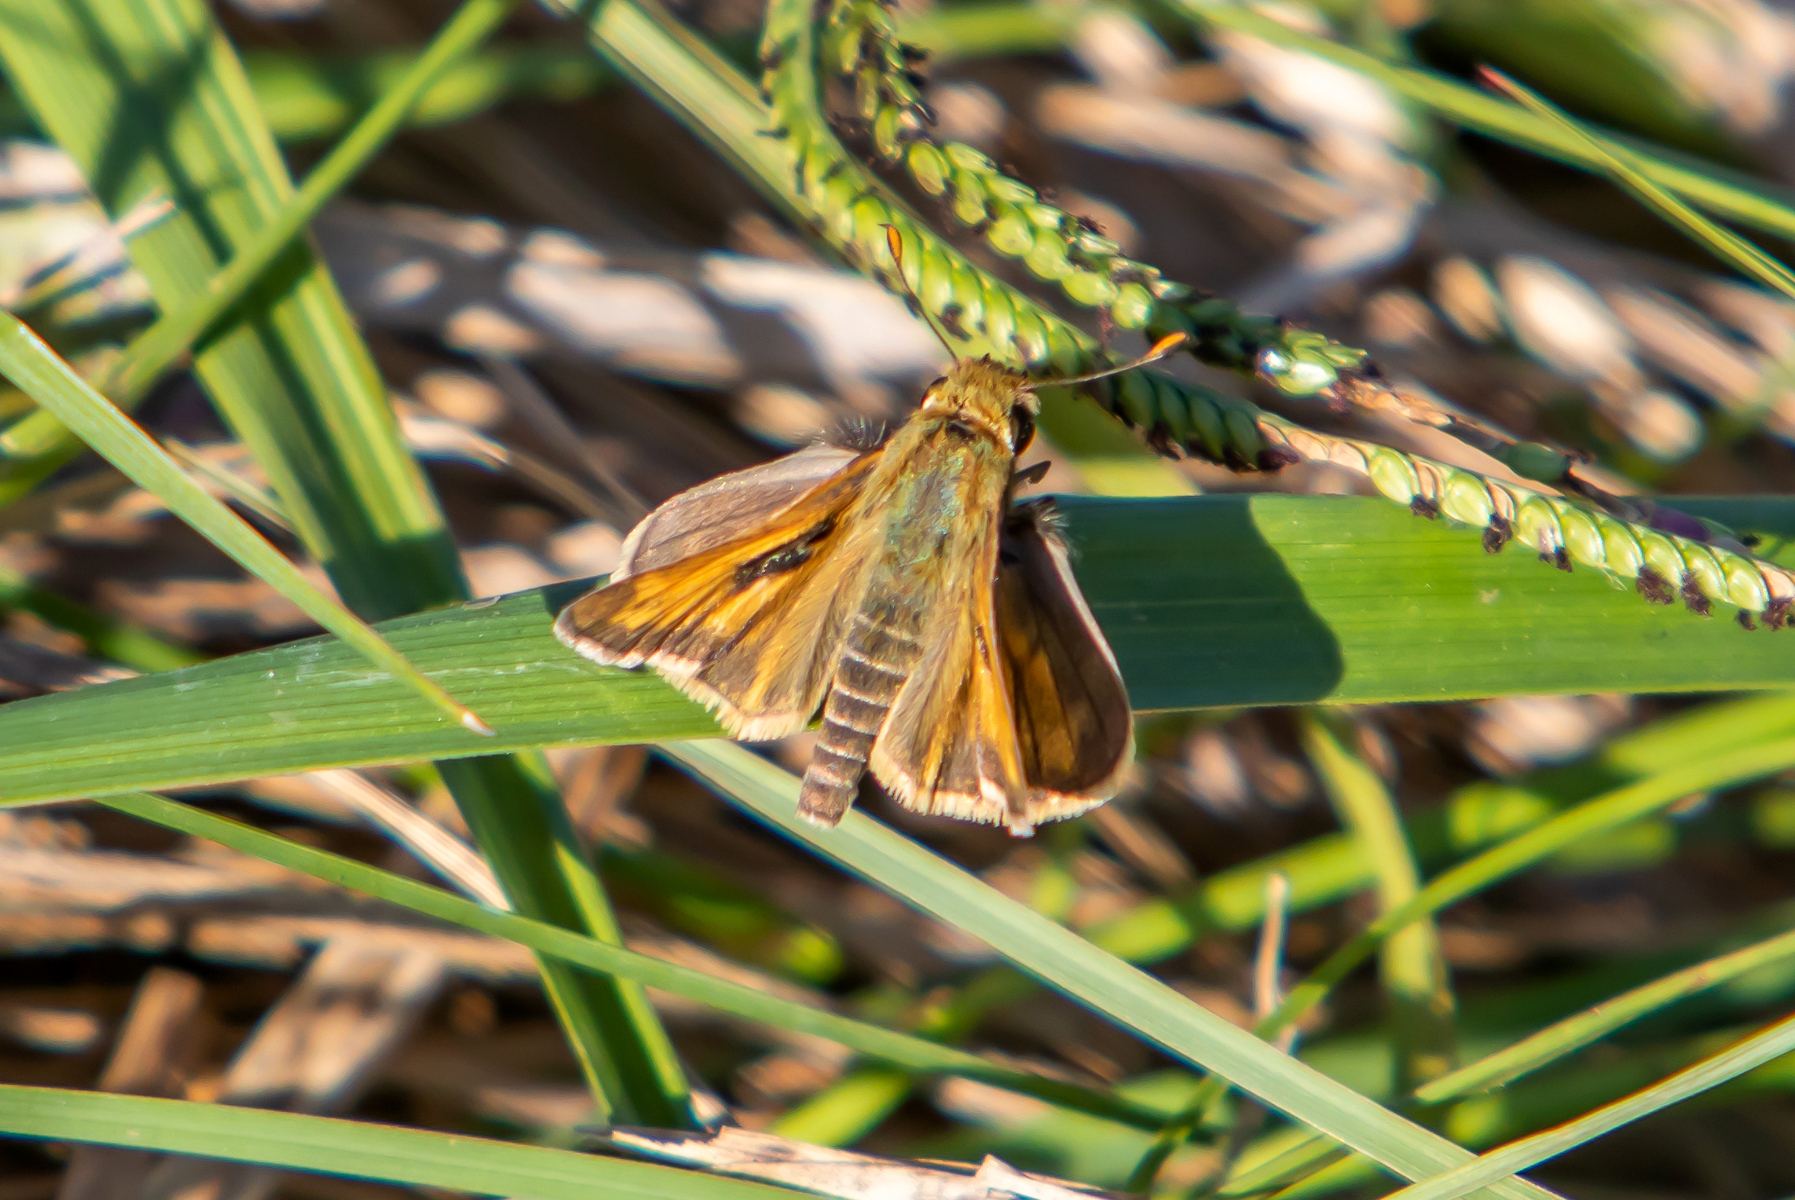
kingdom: Animalia
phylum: Arthropoda
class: Insecta
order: Lepidoptera
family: Hesperiidae
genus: Atalopedes
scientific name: Atalopedes
